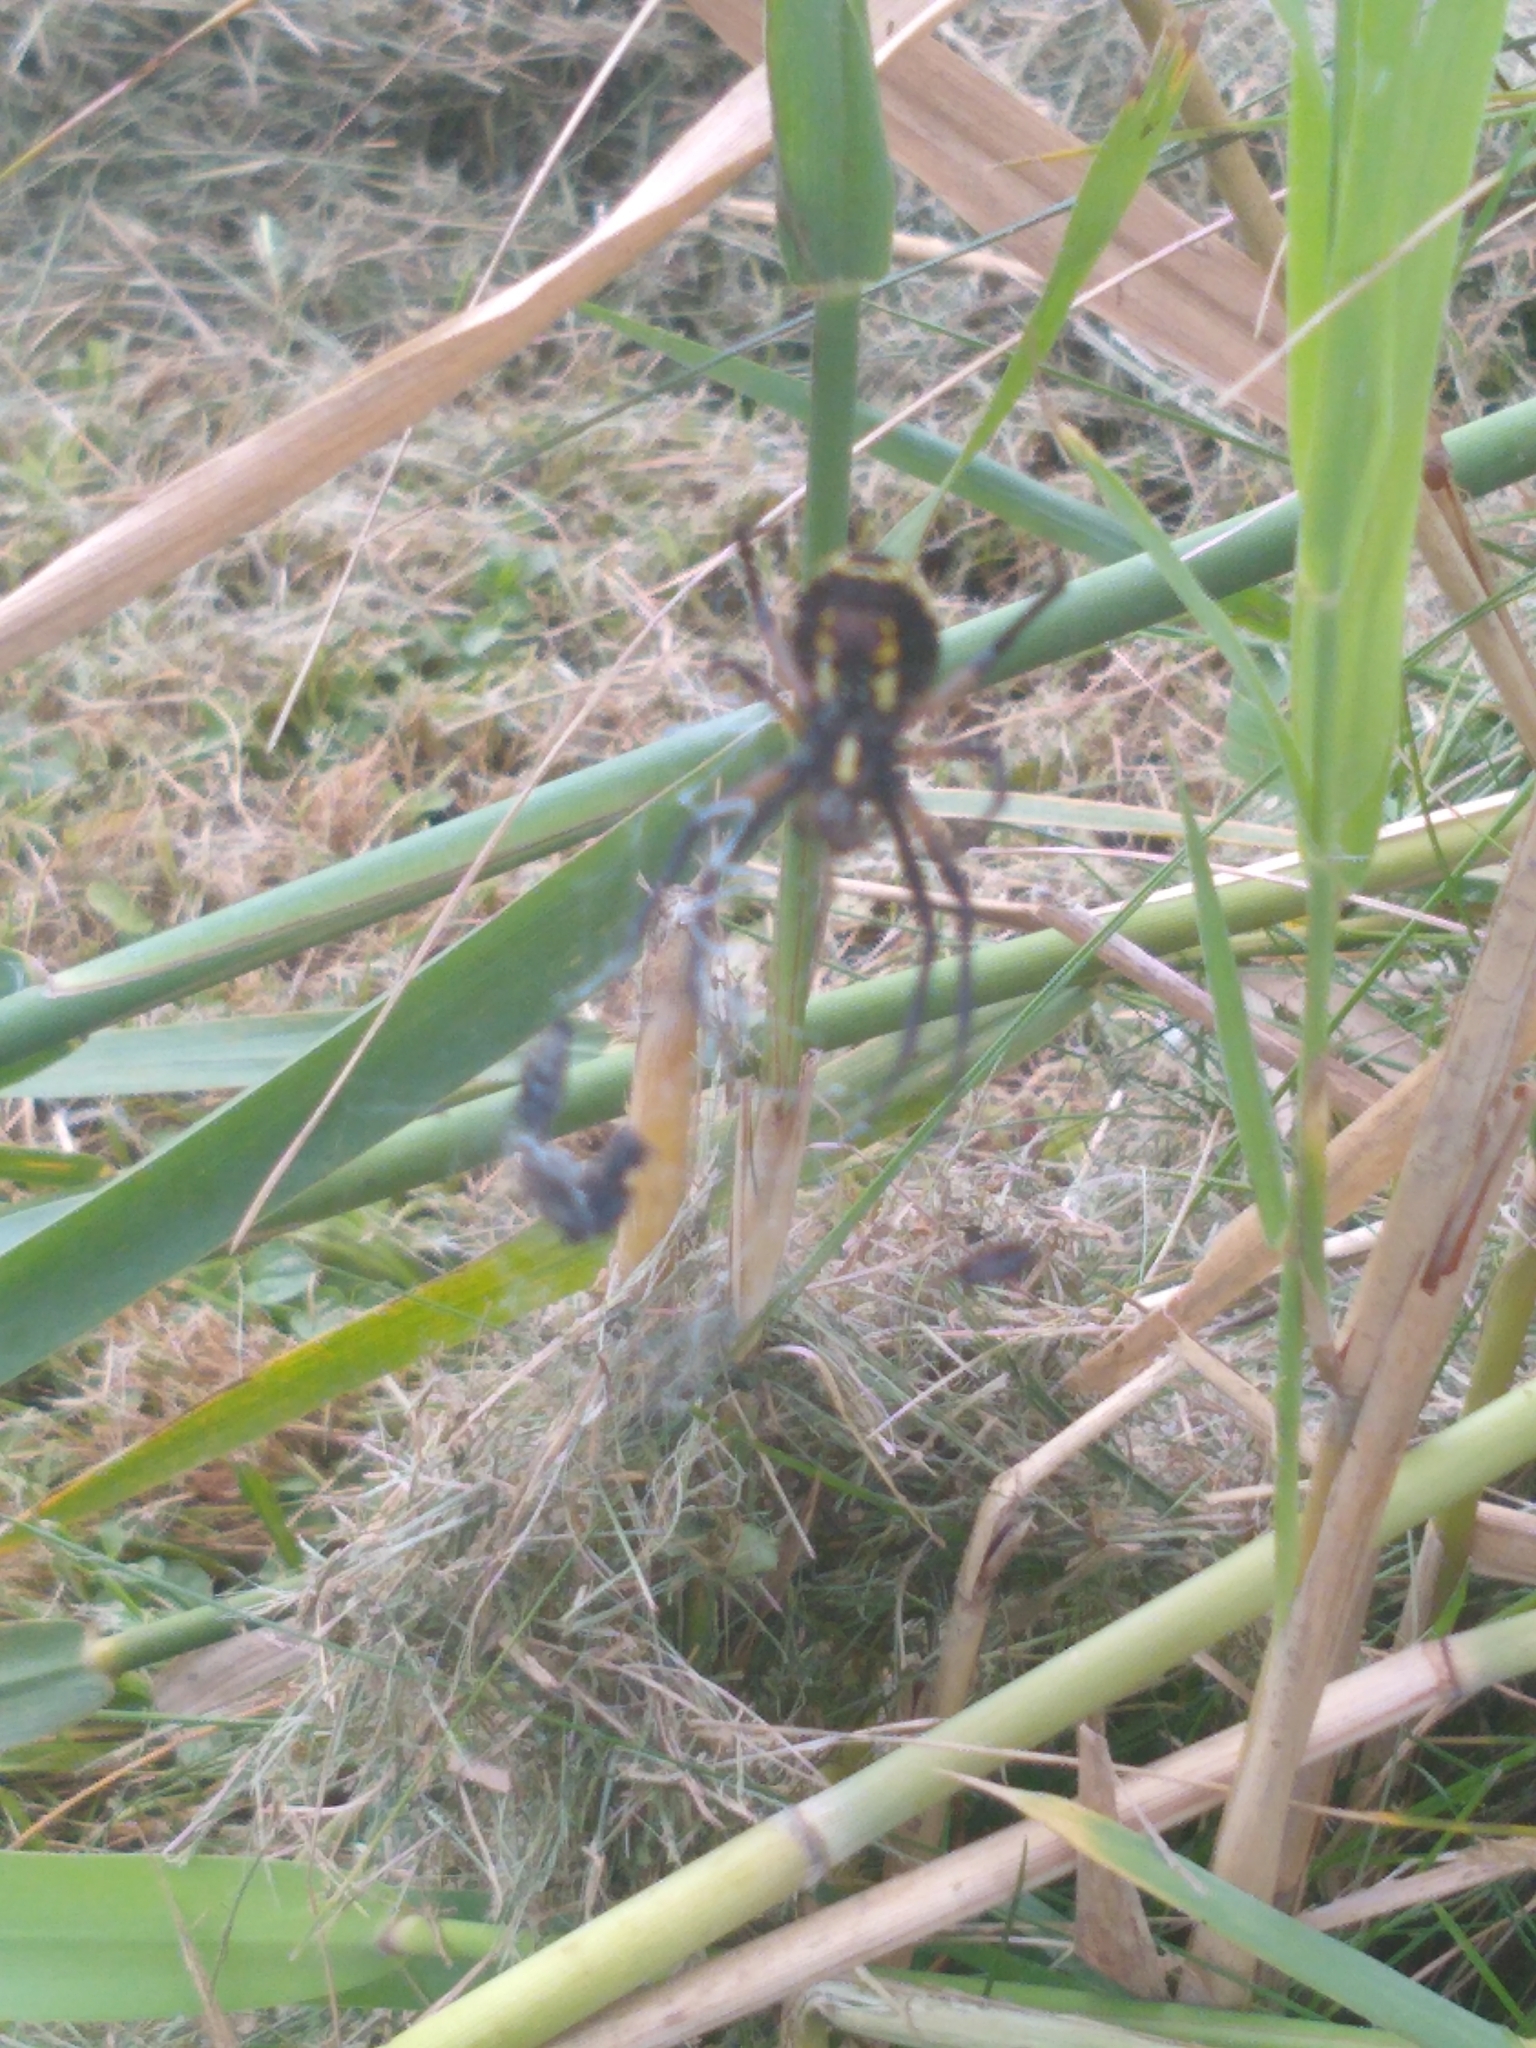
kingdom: Animalia
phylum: Arthropoda
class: Arachnida
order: Araneae
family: Araneidae
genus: Argiope
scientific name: Argiope aurantia
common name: Orb weavers
